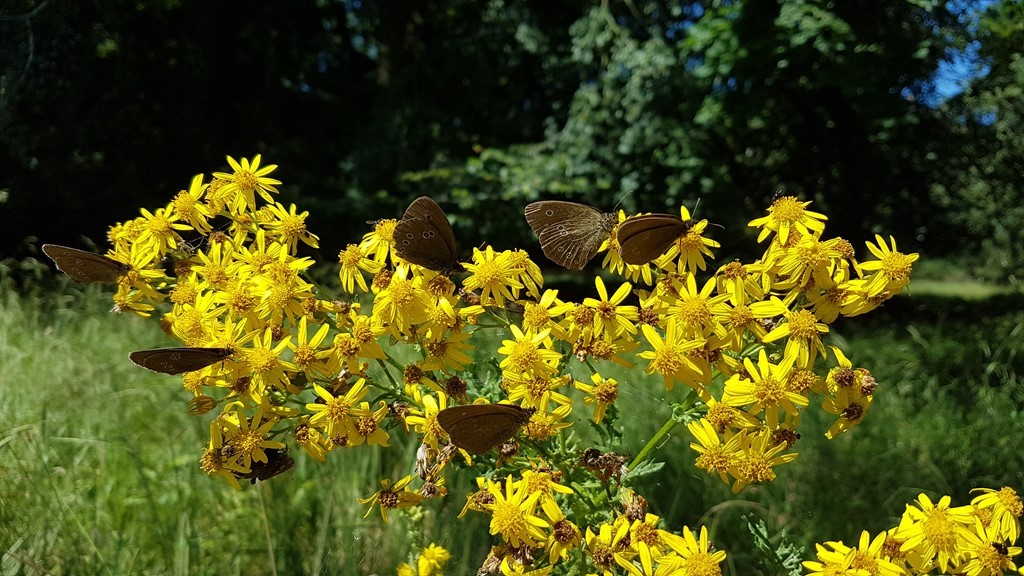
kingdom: Animalia
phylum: Arthropoda
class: Insecta
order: Lepidoptera
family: Nymphalidae
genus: Aphantopus
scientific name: Aphantopus hyperantus
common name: Ringlet
